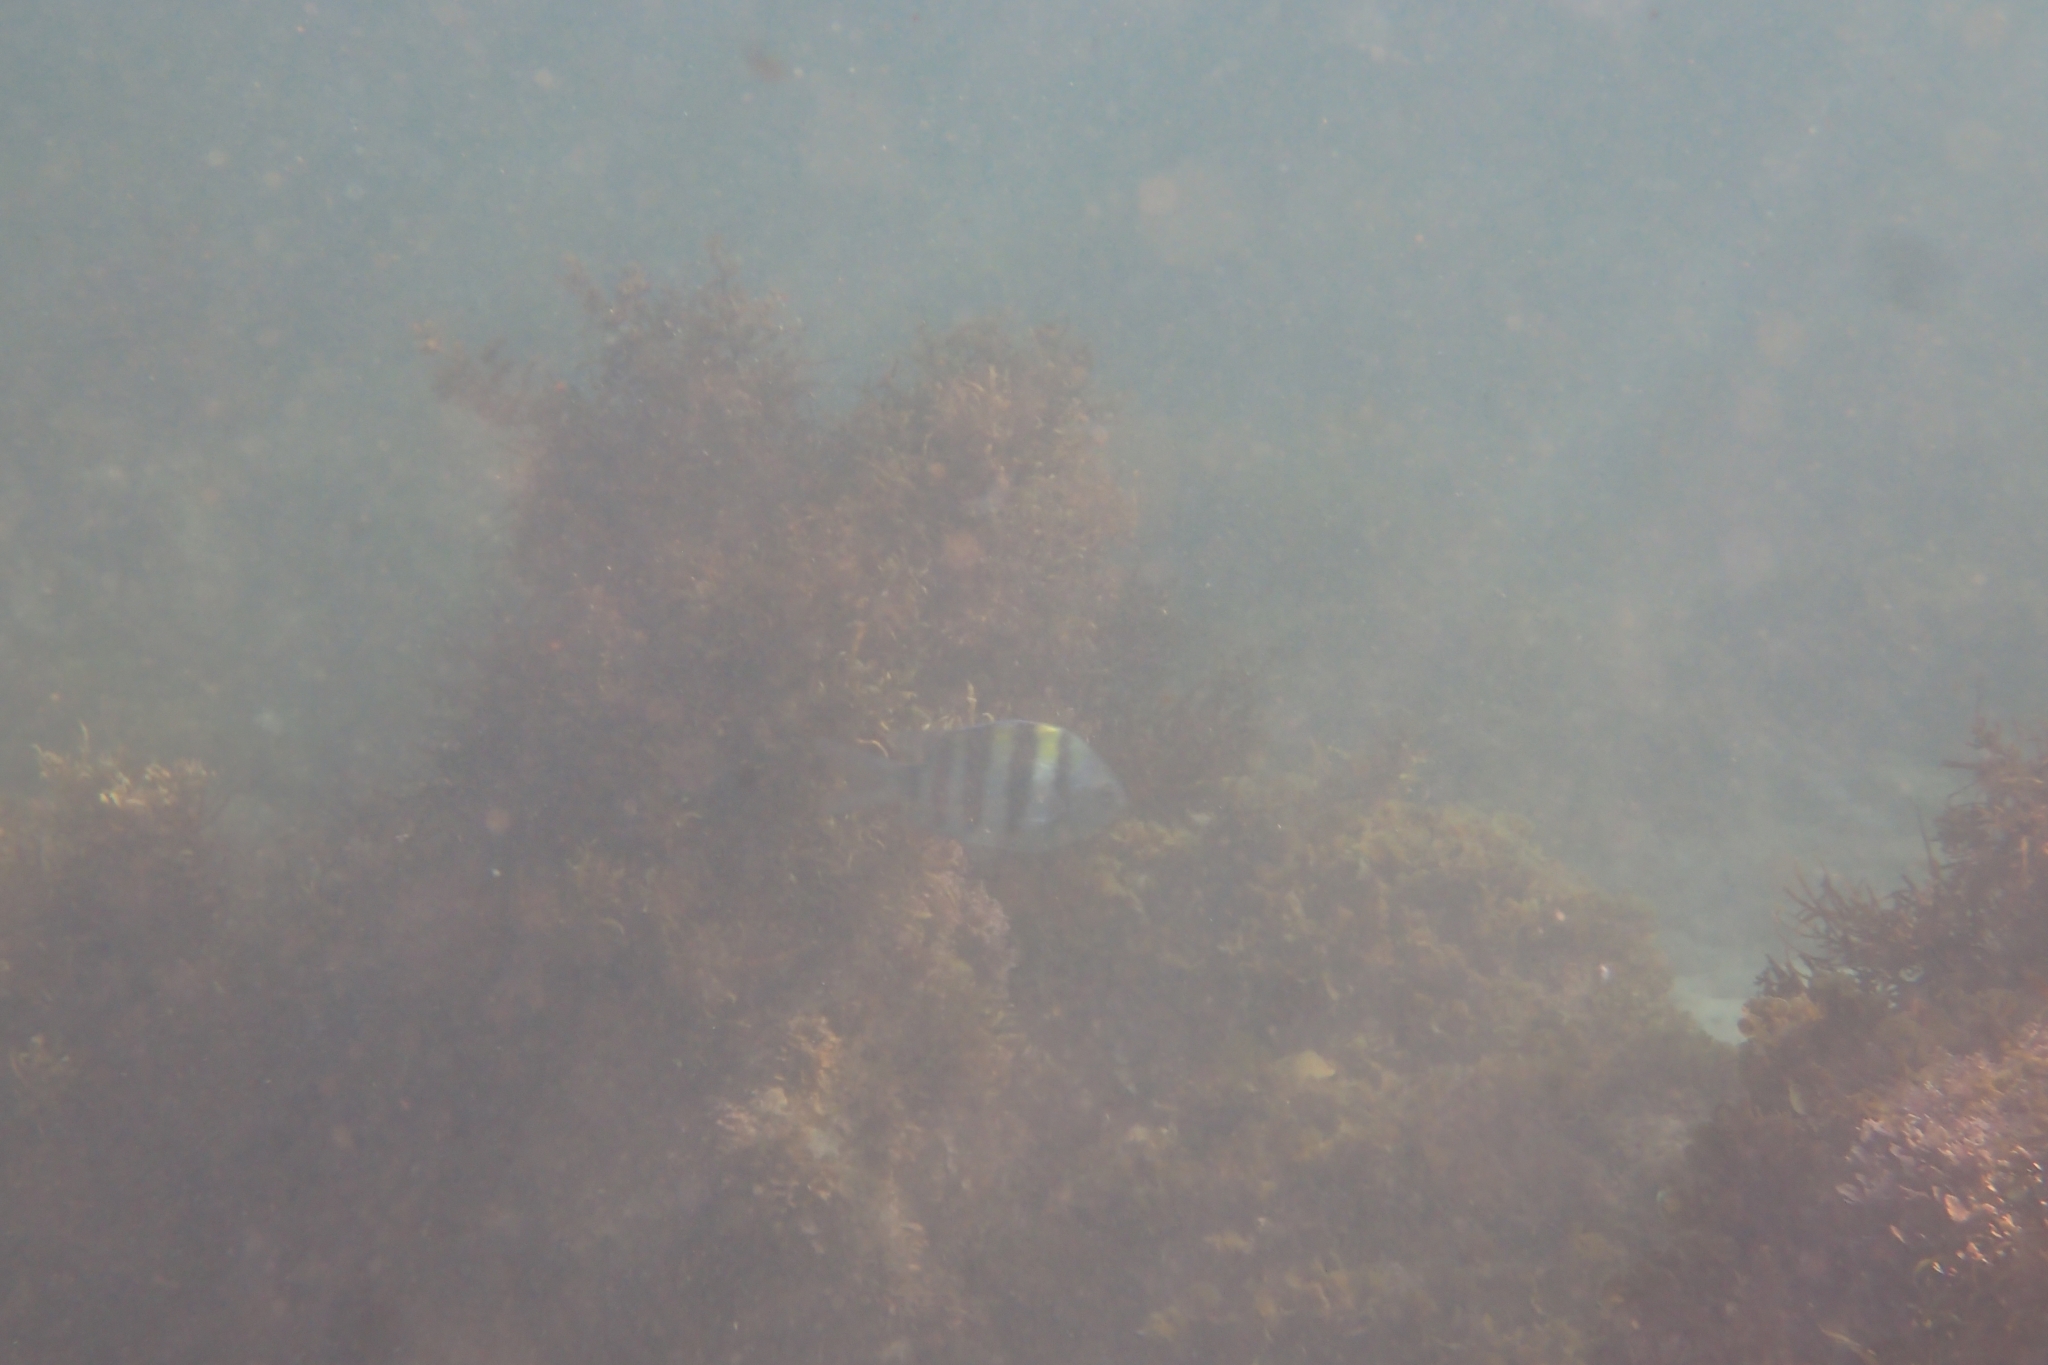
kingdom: Animalia
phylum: Chordata
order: Perciformes
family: Pomacentridae
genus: Abudefduf
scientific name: Abudefduf vaigiensis
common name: Indo-pacific sergeant
